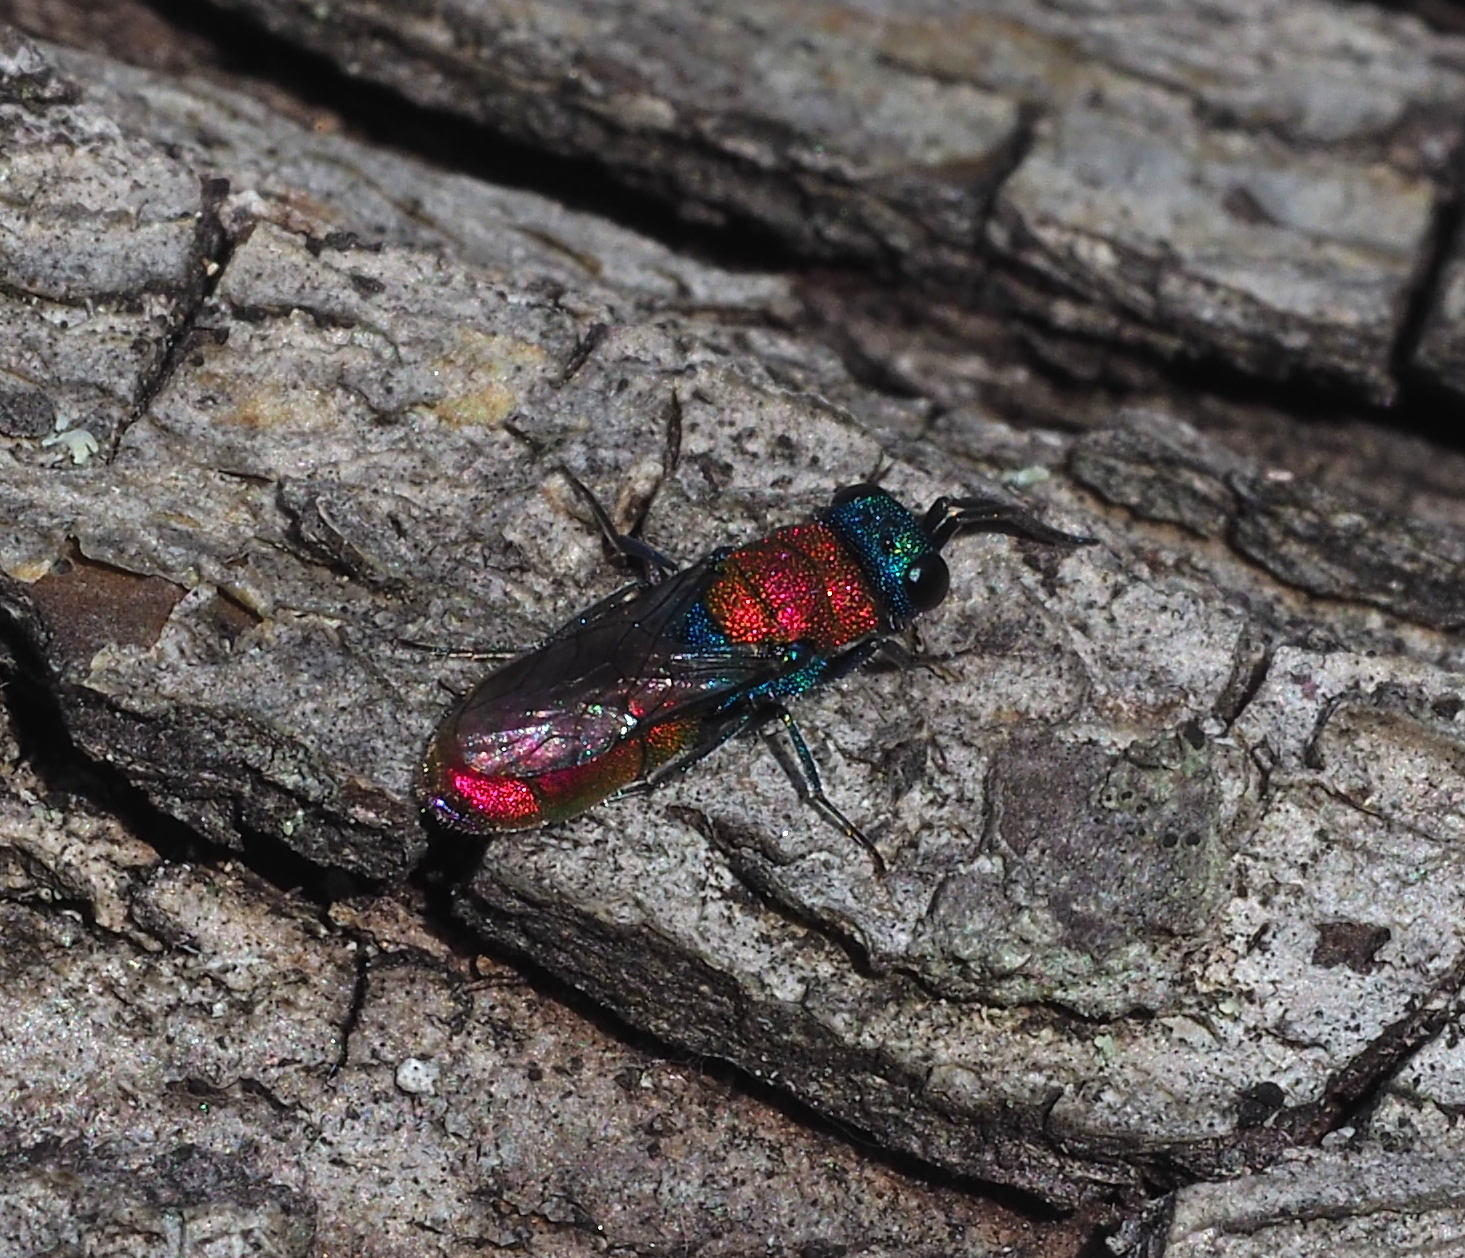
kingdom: Animalia
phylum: Arthropoda
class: Insecta
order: Hymenoptera
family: Chrysididae
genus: Chrysura
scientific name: Chrysura
